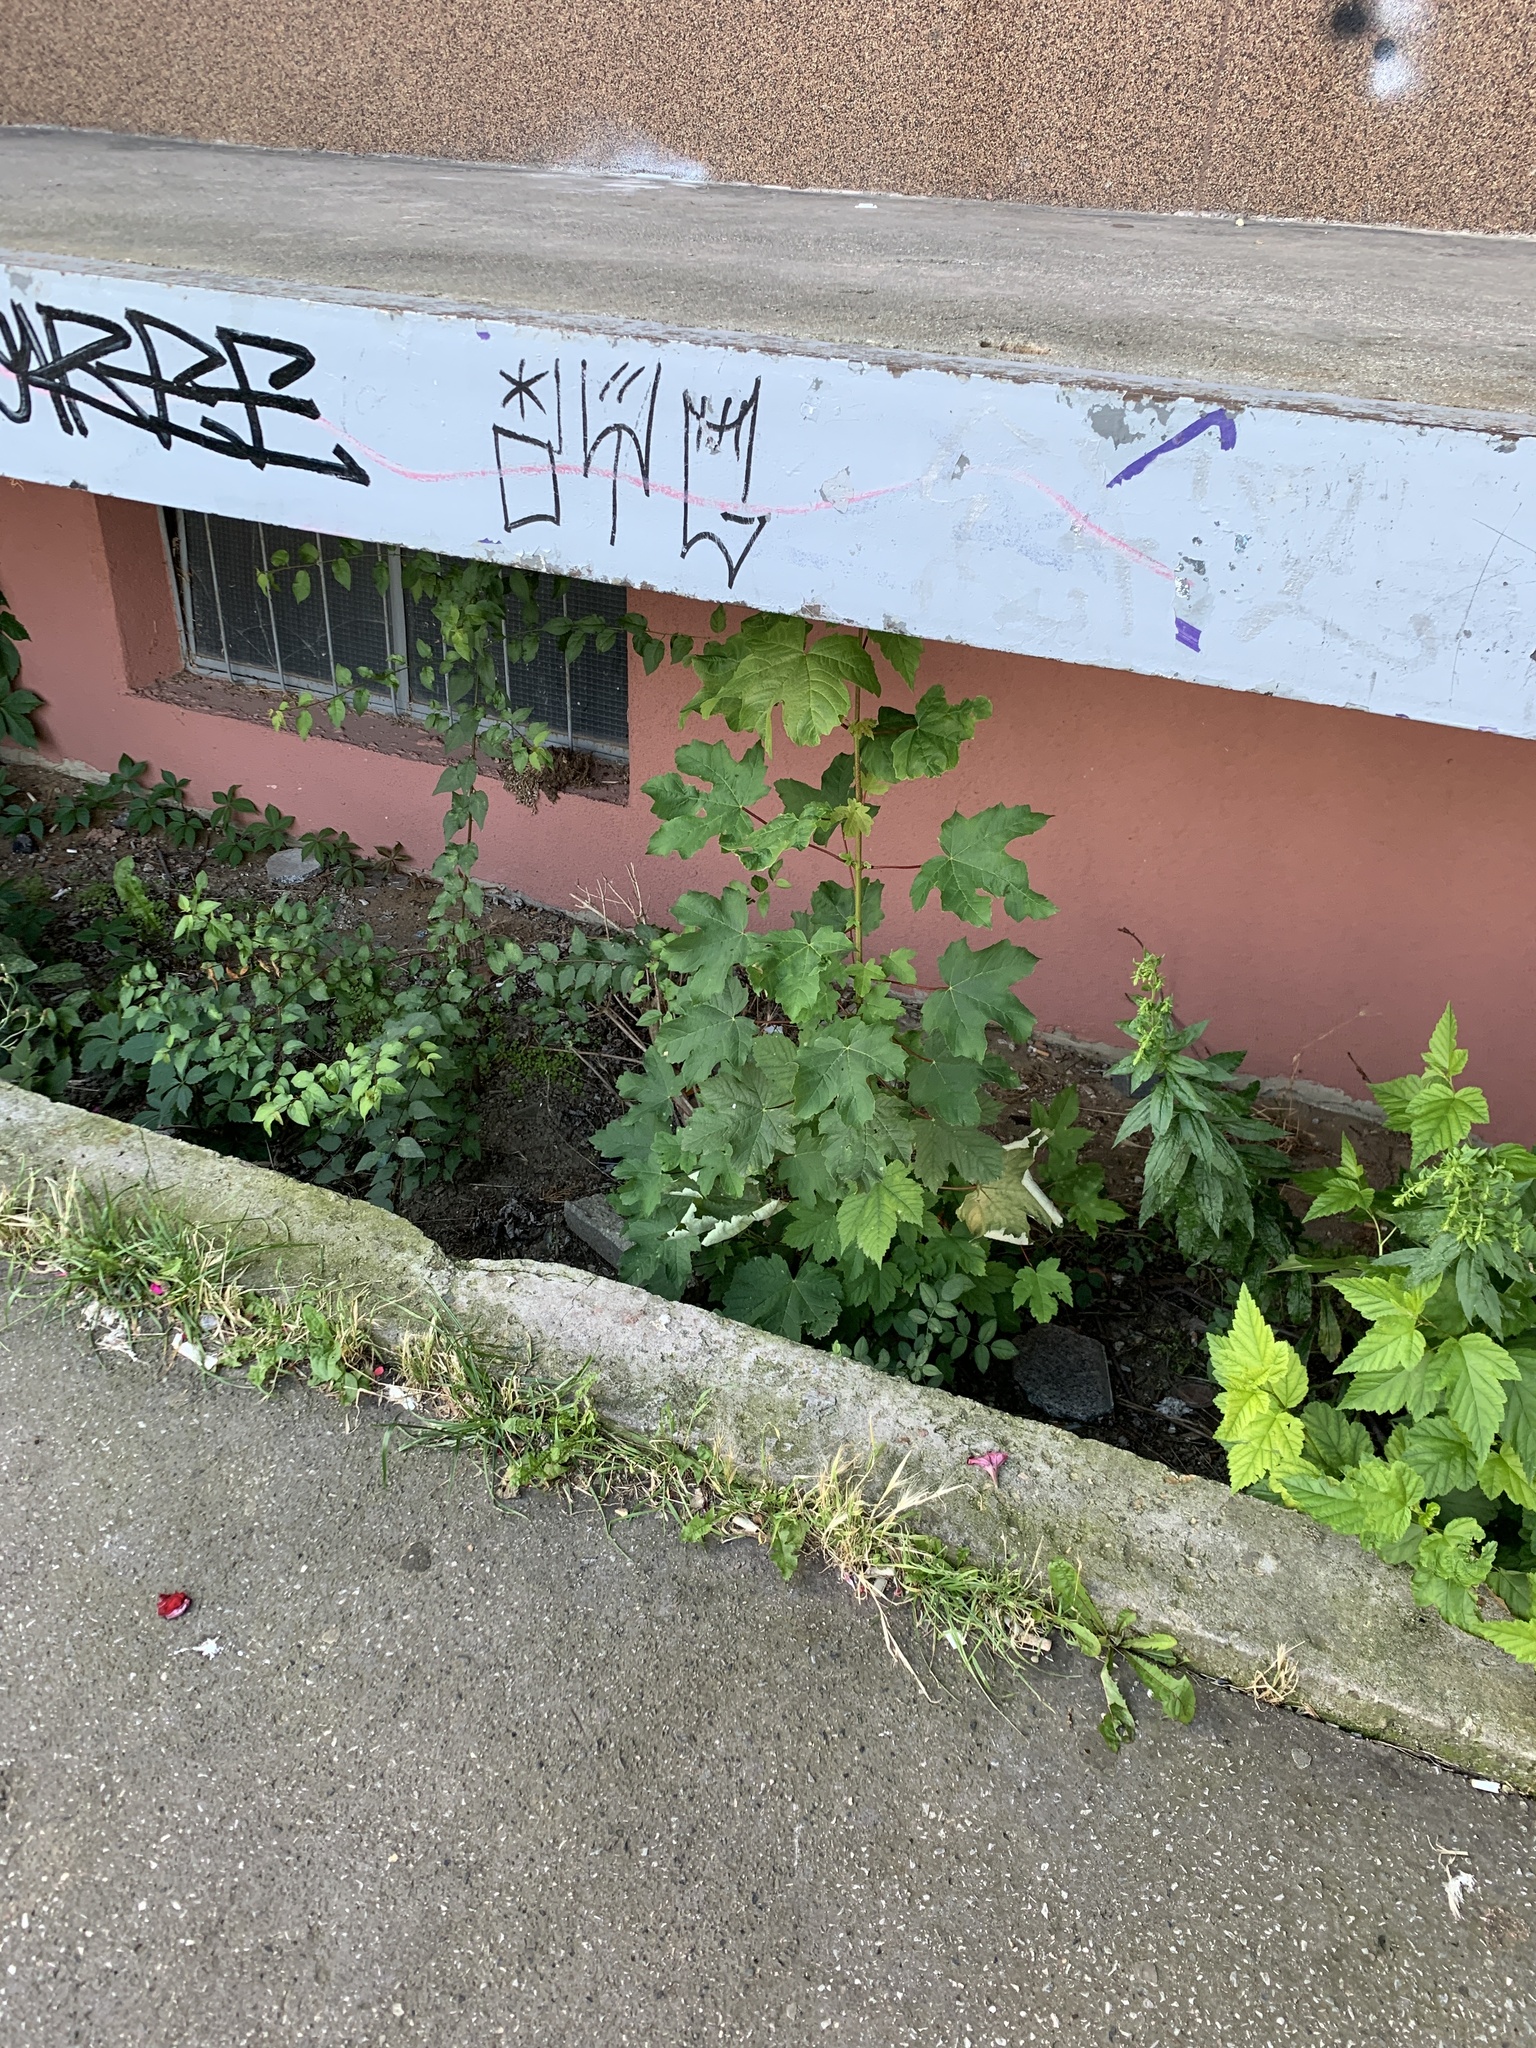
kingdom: Plantae
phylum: Tracheophyta
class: Magnoliopsida
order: Sapindales
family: Sapindaceae
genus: Acer
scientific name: Acer pseudoplatanus
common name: Sycamore
